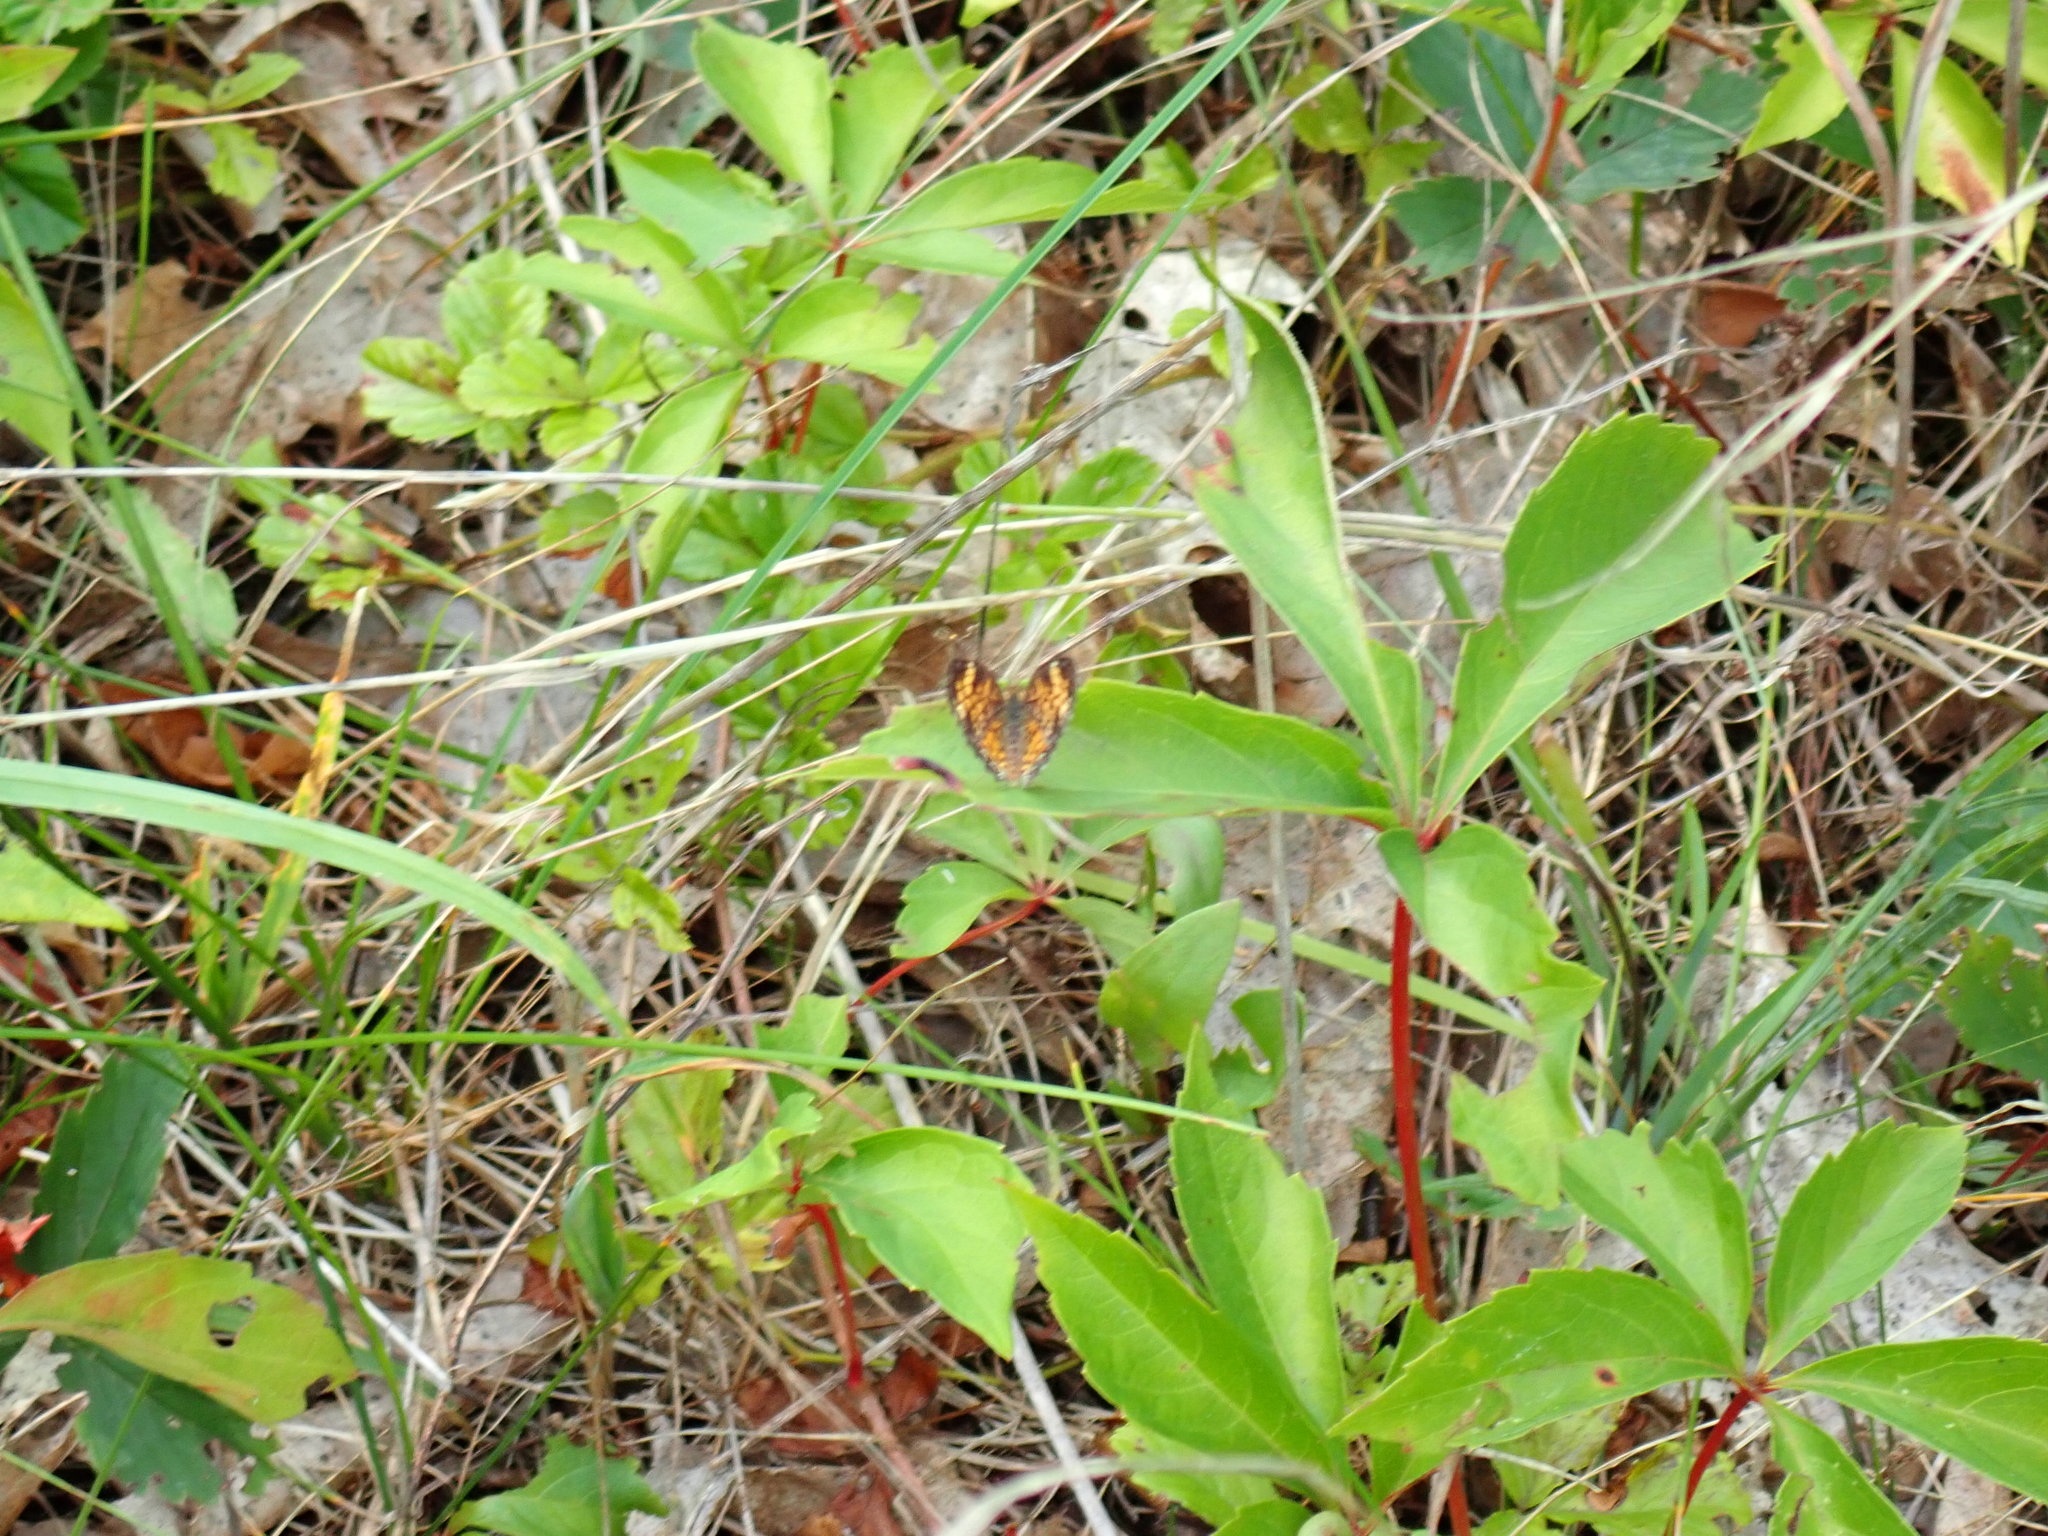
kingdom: Animalia
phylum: Arthropoda
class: Insecta
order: Lepidoptera
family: Nymphalidae
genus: Phyciodes
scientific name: Phyciodes tharos
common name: Pearl crescent
